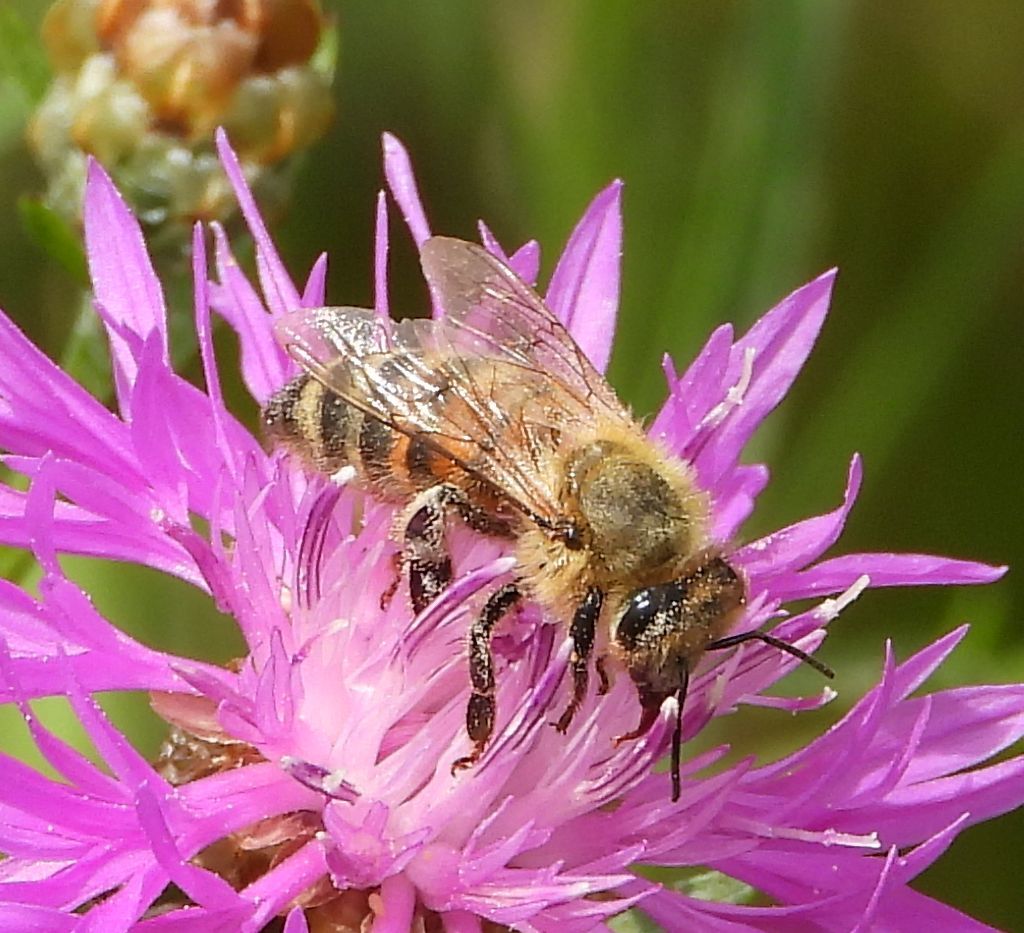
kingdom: Animalia
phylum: Arthropoda
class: Insecta
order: Hymenoptera
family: Apidae
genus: Apis
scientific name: Apis mellifera
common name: Honey bee
